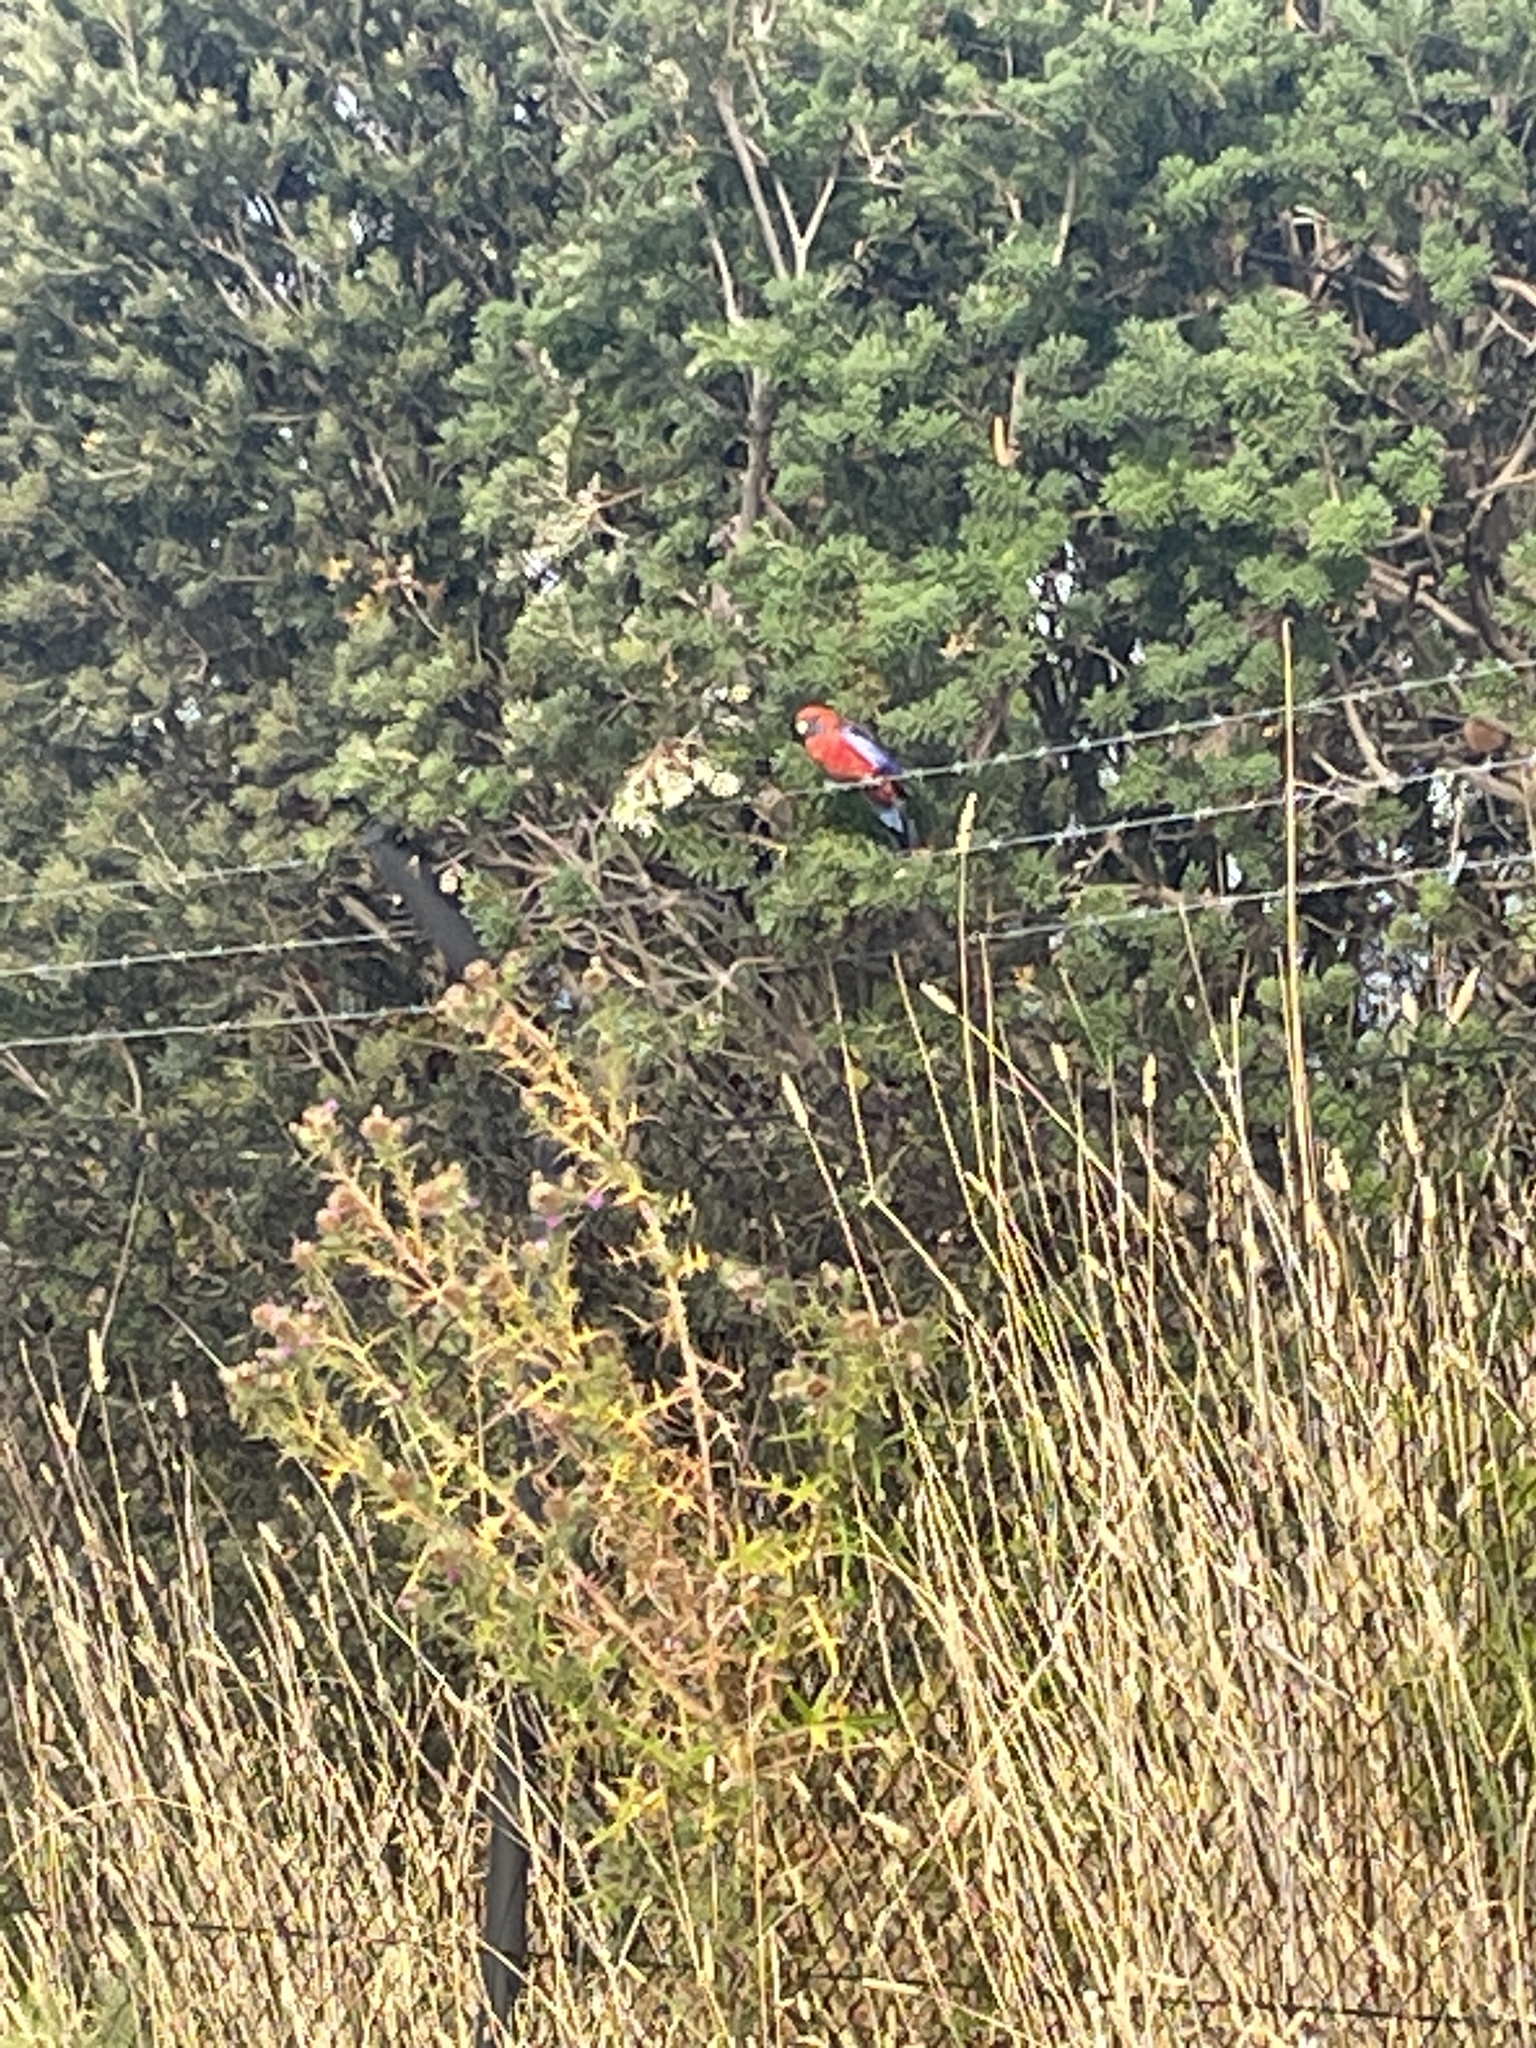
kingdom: Animalia
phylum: Chordata
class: Aves
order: Psittaciformes
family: Psittacidae
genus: Platycercus
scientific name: Platycercus elegans
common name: Crimson rosella
